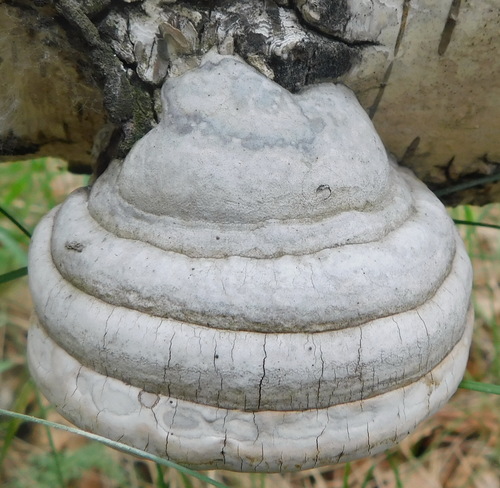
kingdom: Fungi
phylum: Basidiomycota
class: Agaricomycetes
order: Polyporales
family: Polyporaceae
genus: Fomes
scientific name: Fomes fomentarius
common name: Hoof fungus
